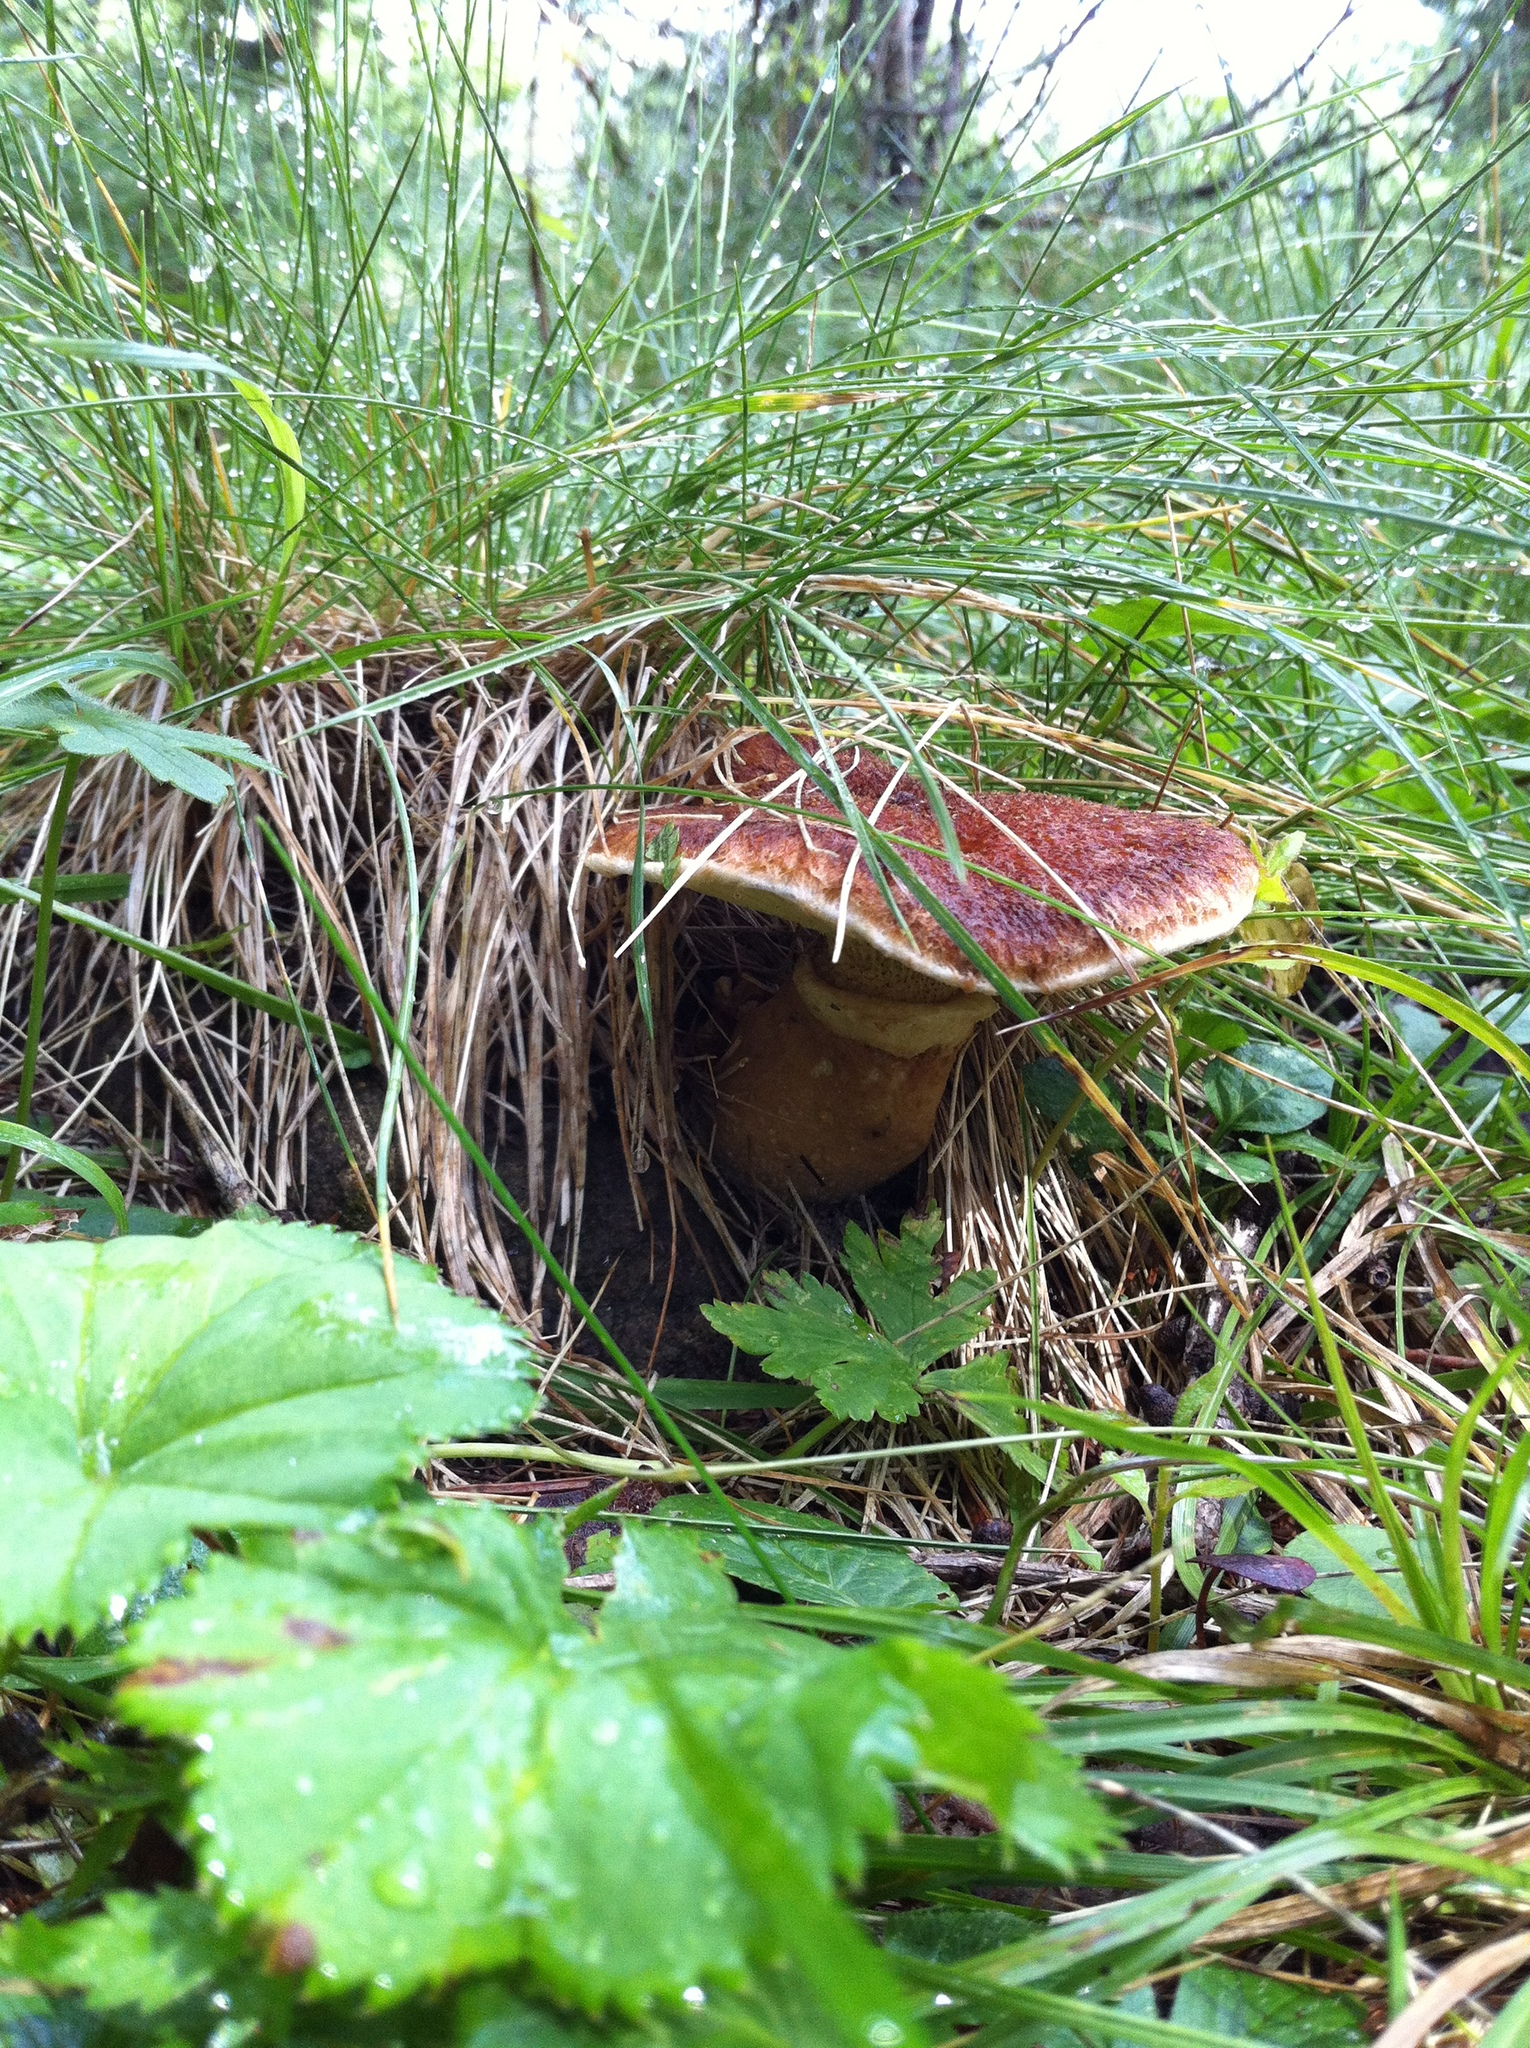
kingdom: Fungi
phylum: Basidiomycota
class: Agaricomycetes
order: Boletales
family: Suillaceae
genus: Suillus
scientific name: Suillus cavipes
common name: Hollow bolete
